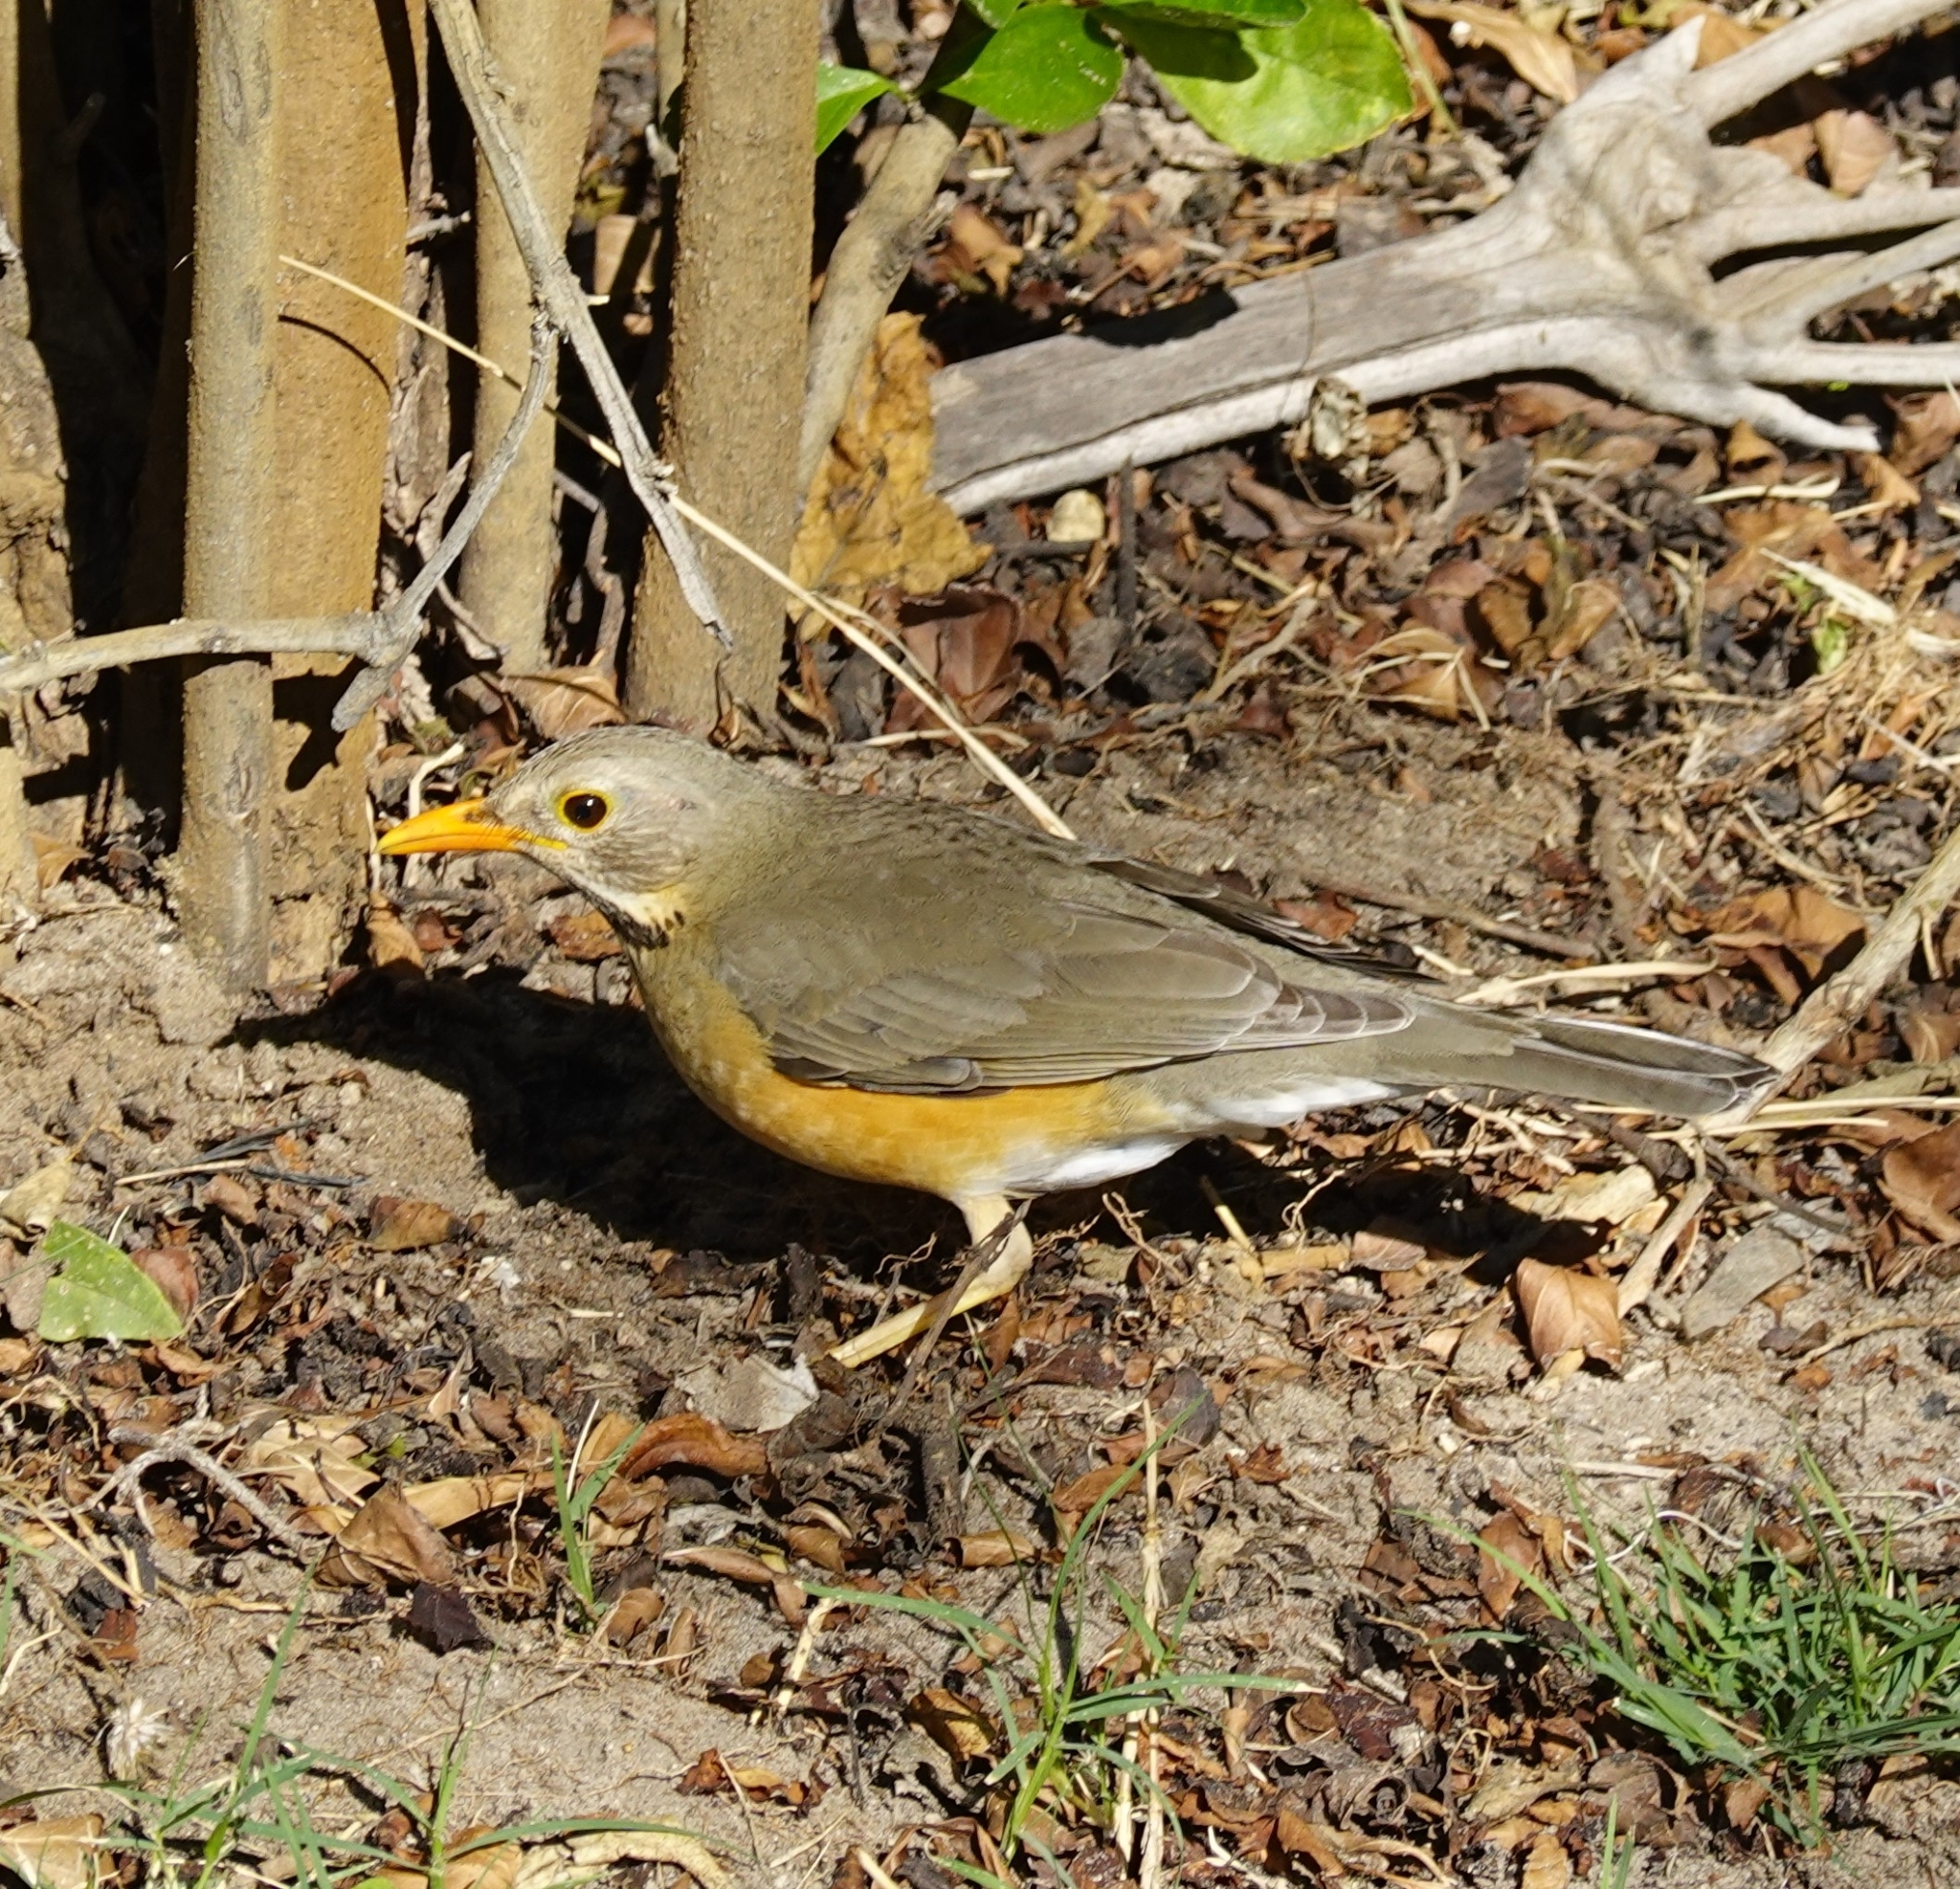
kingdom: Animalia
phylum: Chordata
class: Aves
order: Passeriformes
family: Turdidae
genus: Turdus
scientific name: Turdus libonyana
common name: Kurrichane thrush
